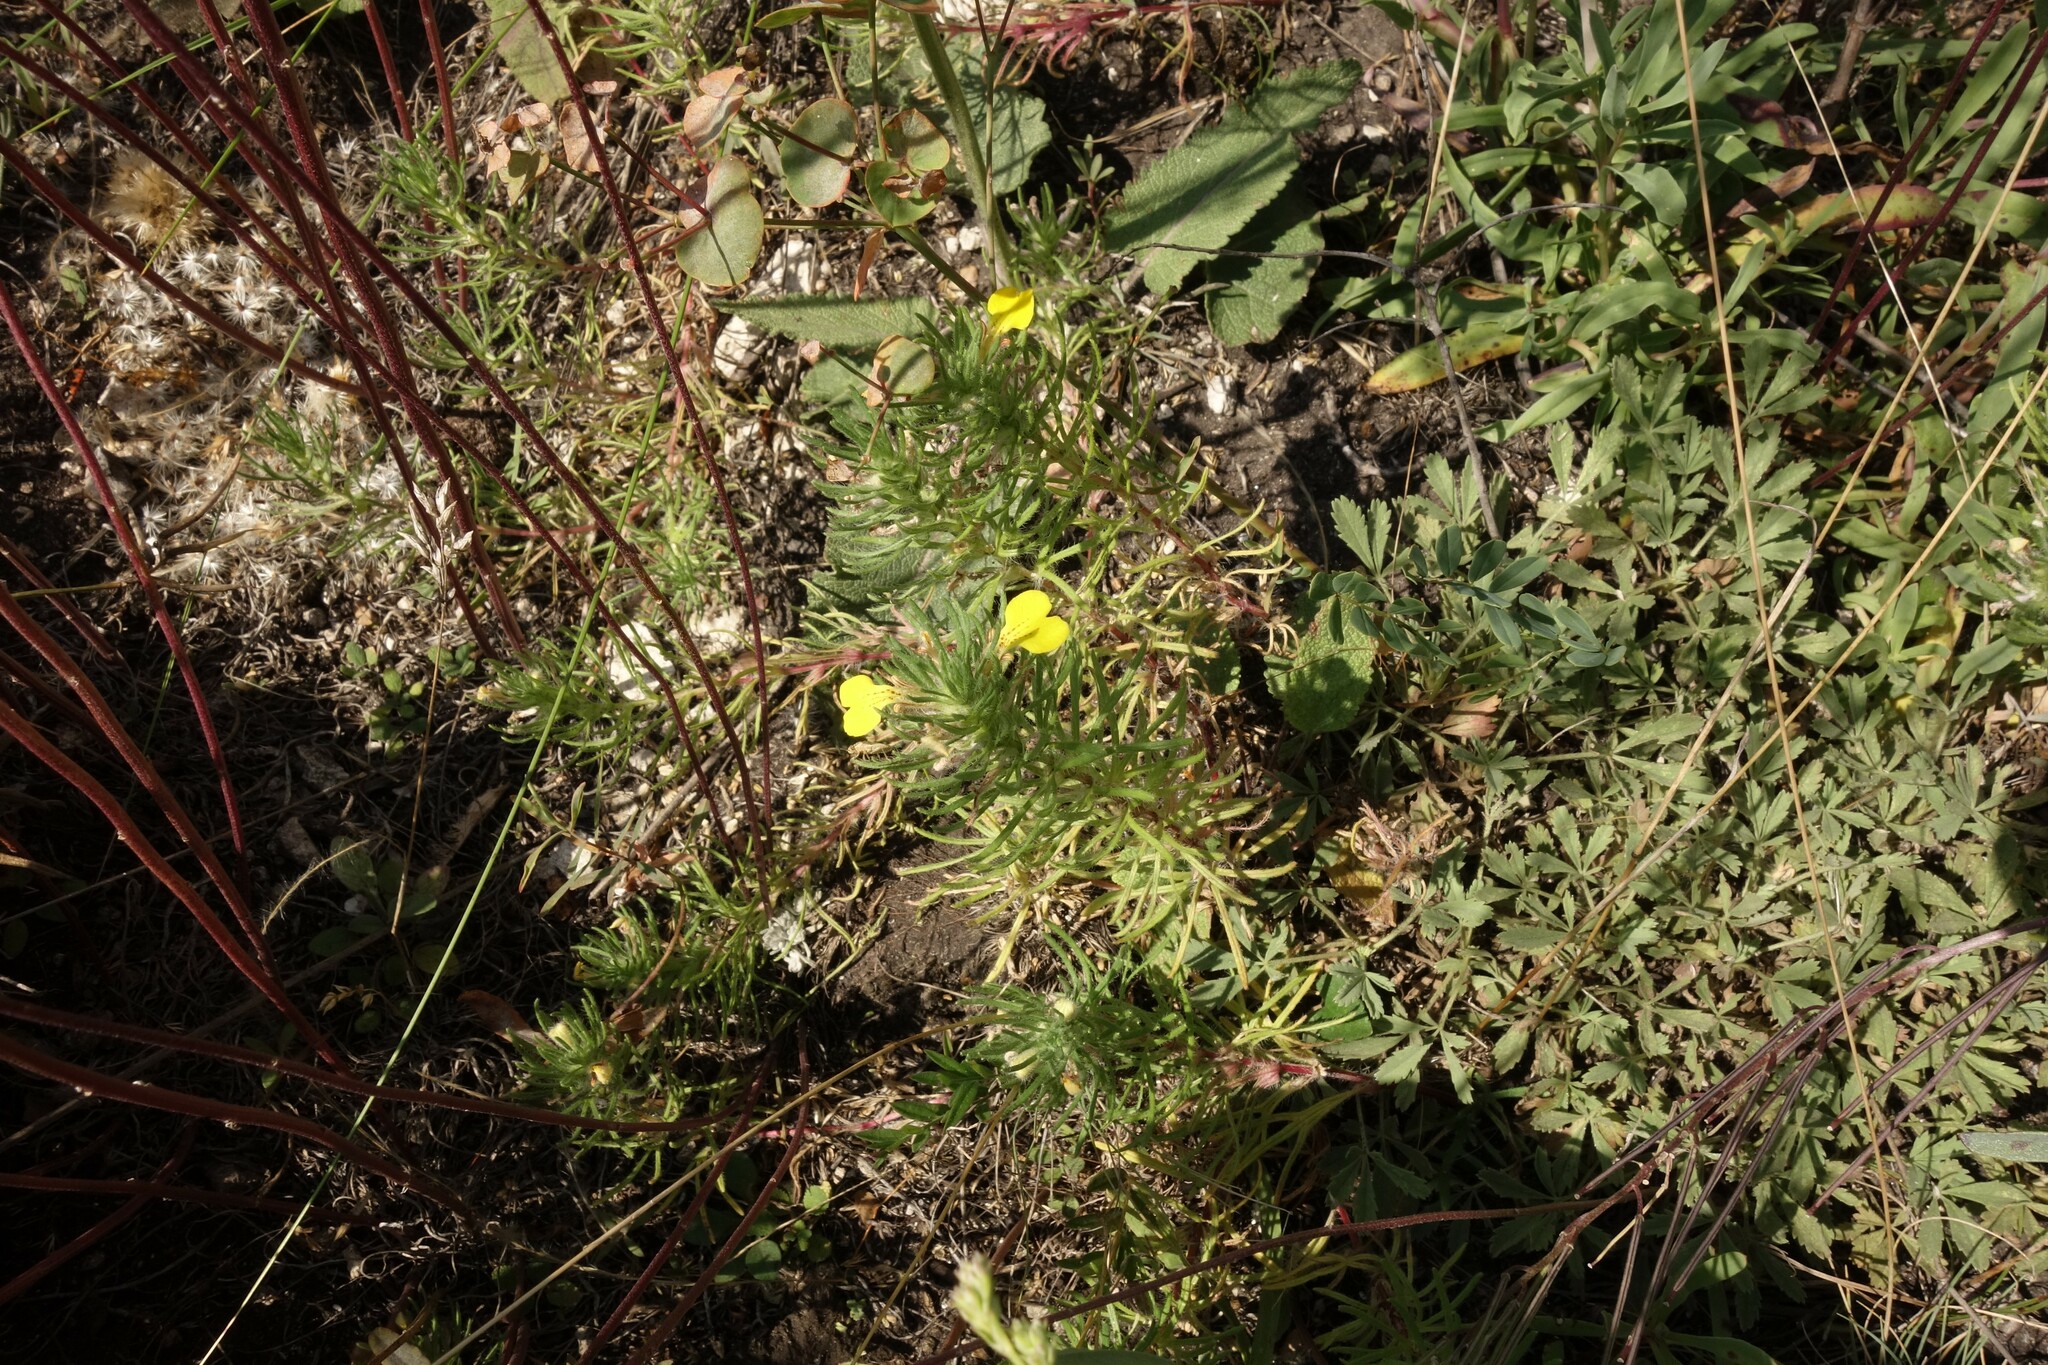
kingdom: Plantae
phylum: Tracheophyta
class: Magnoliopsida
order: Lamiales
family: Lamiaceae
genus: Ajuga
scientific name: Ajuga chamaepitys
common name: Ground-pine
